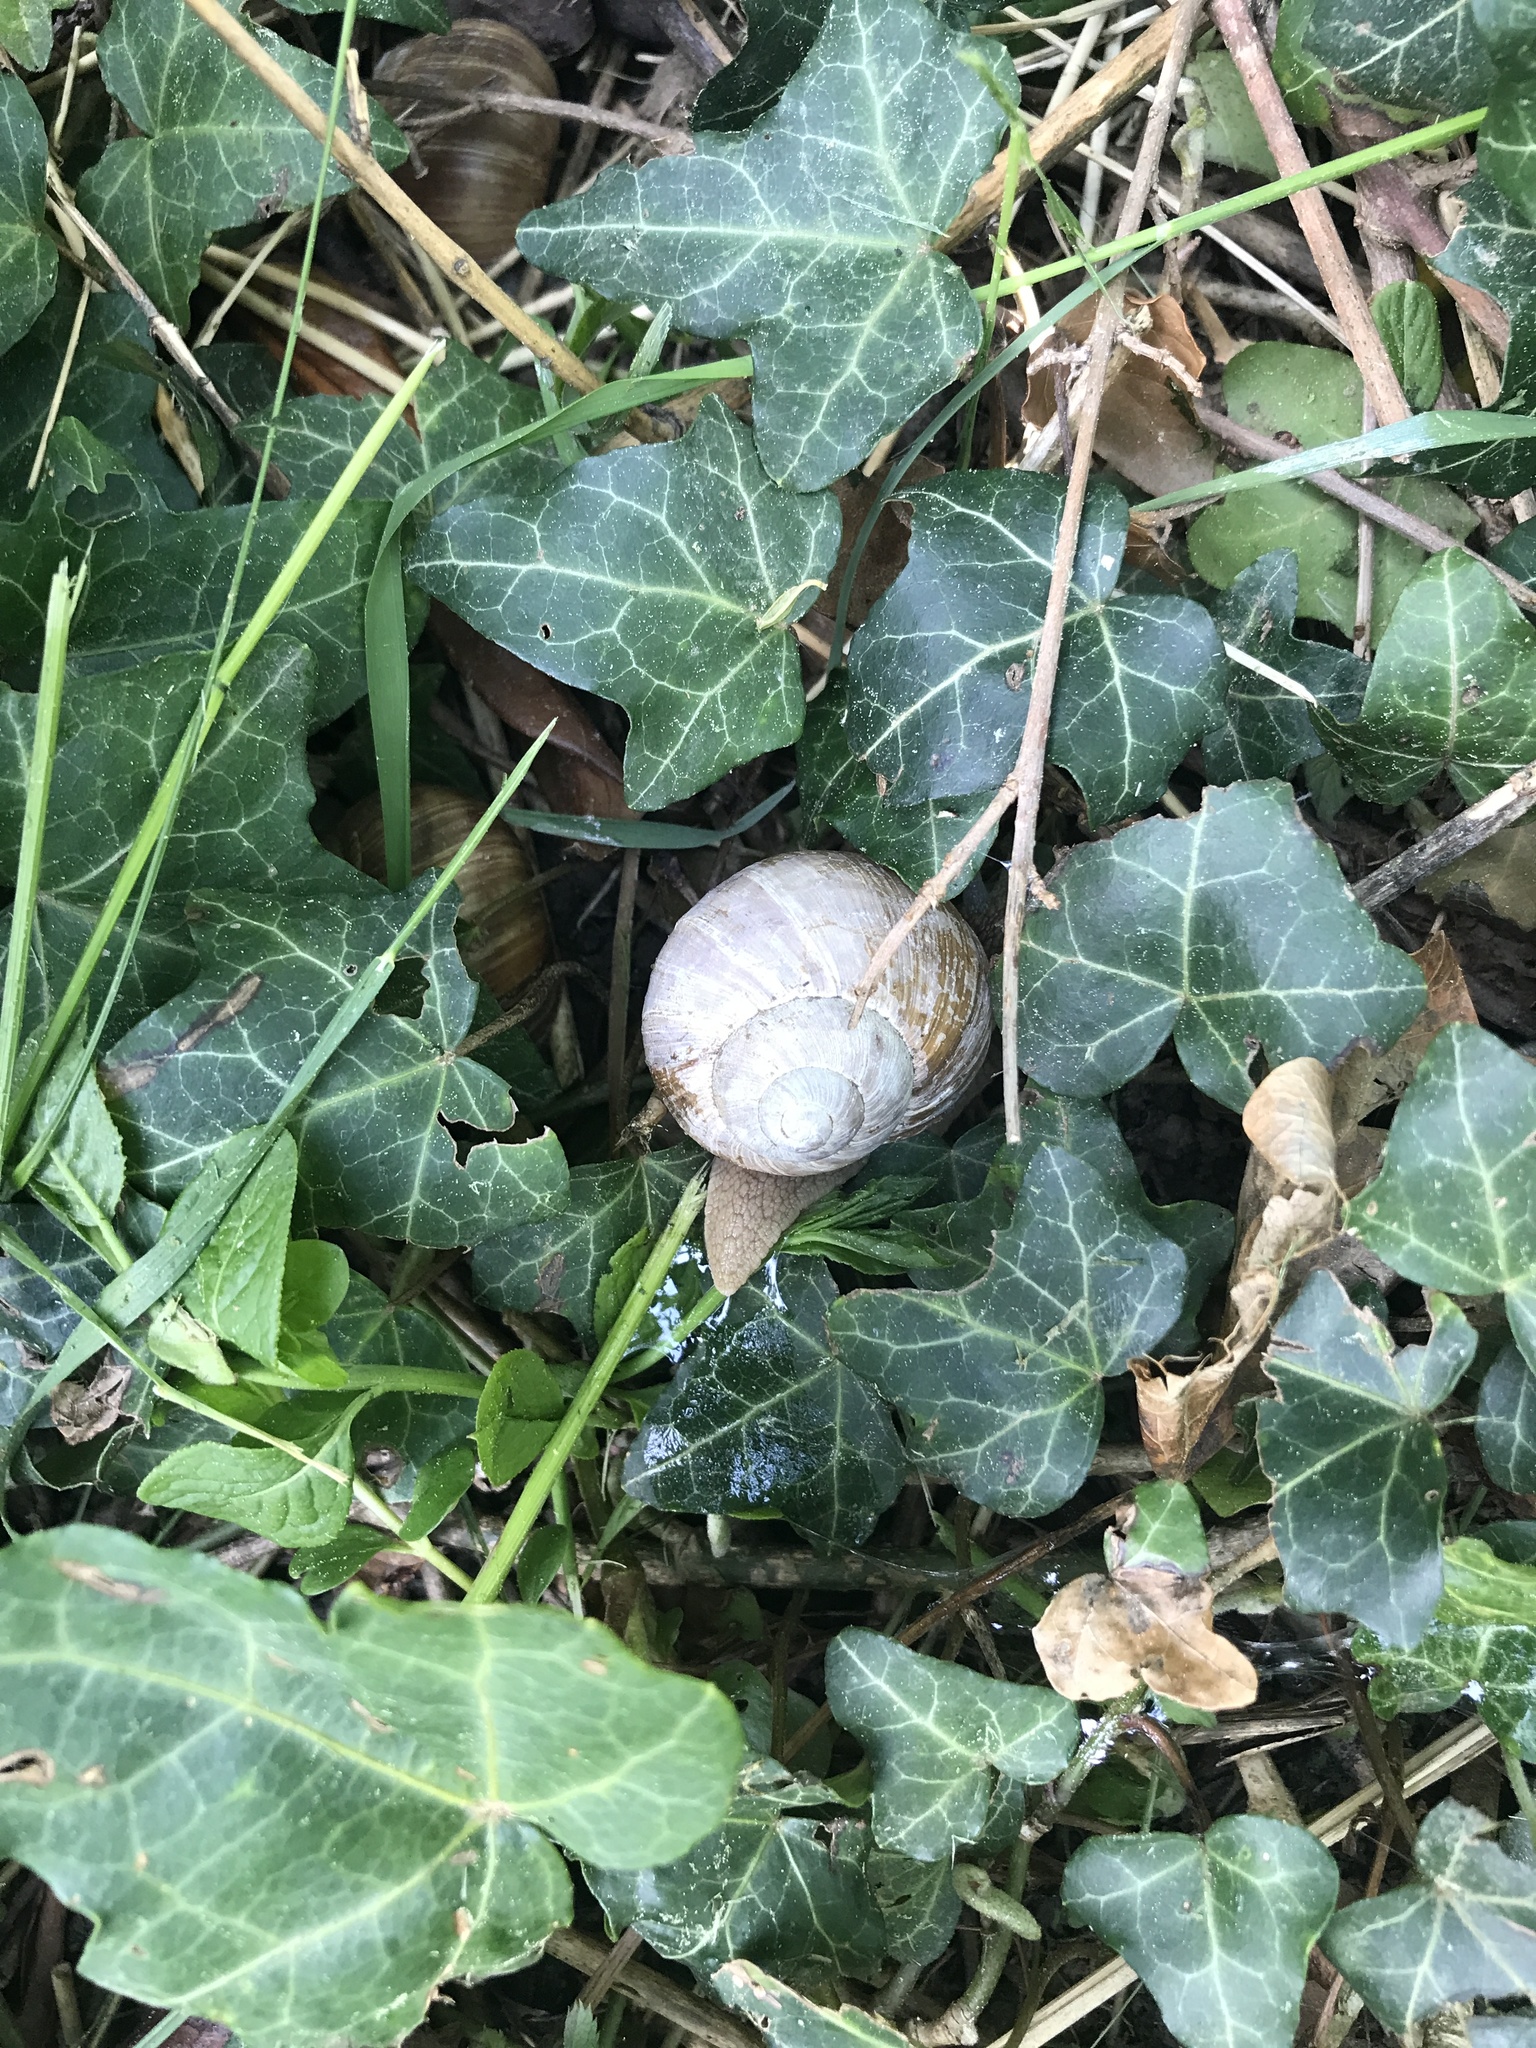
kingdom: Animalia
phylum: Mollusca
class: Gastropoda
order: Stylommatophora
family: Helicidae
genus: Helix
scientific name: Helix pomatia
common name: Roman snail
